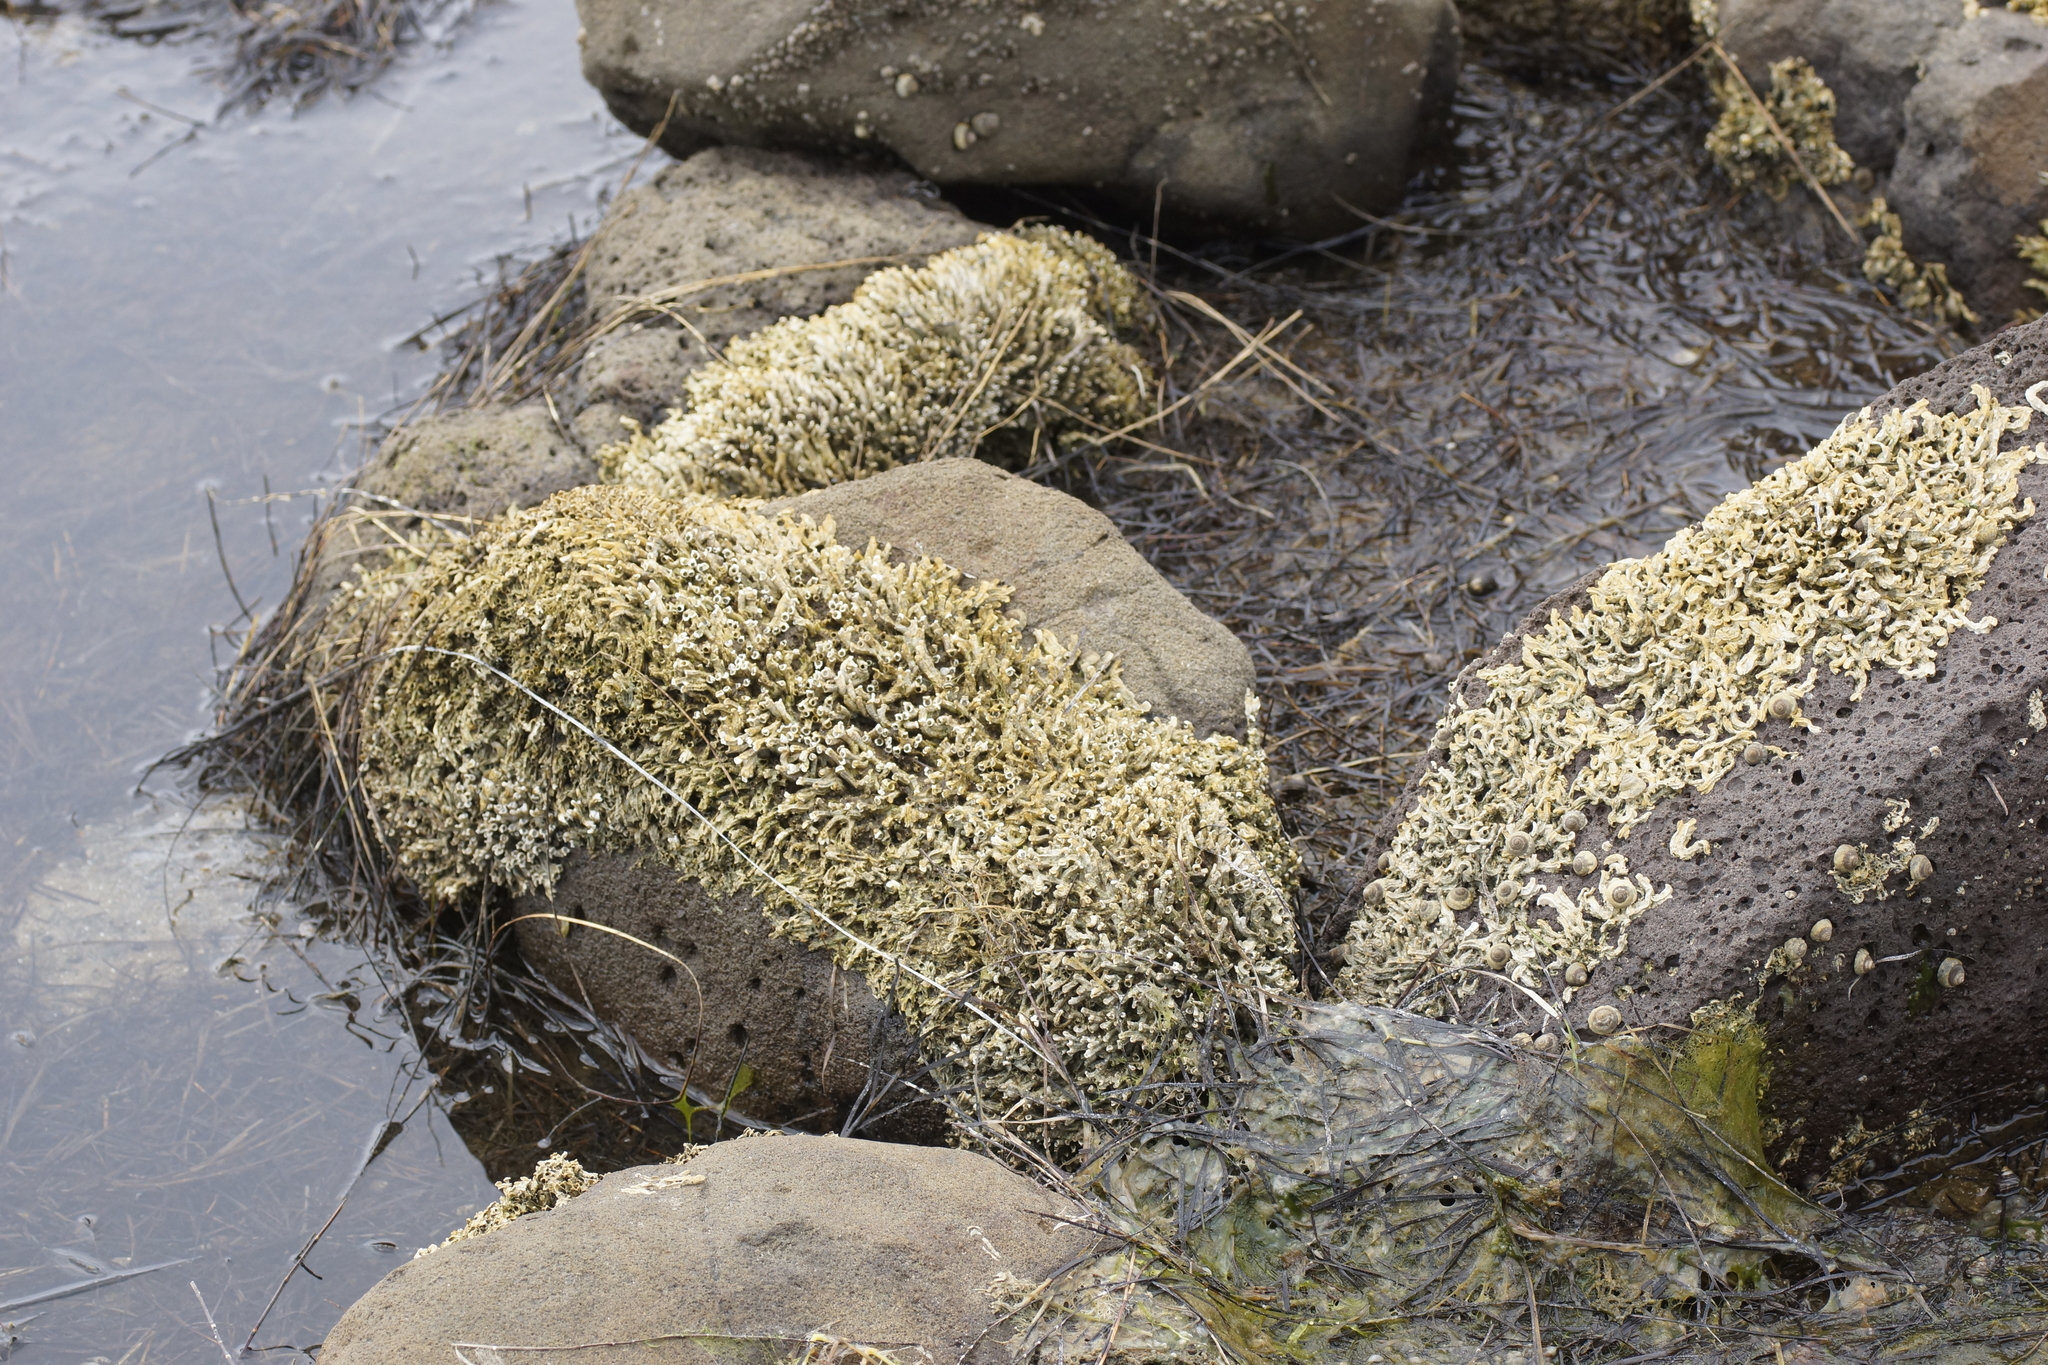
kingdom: Animalia
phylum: Annelida
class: Polychaeta
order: Sabellida
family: Serpulidae
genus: Galeolaria
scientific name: Galeolaria caespitosa
